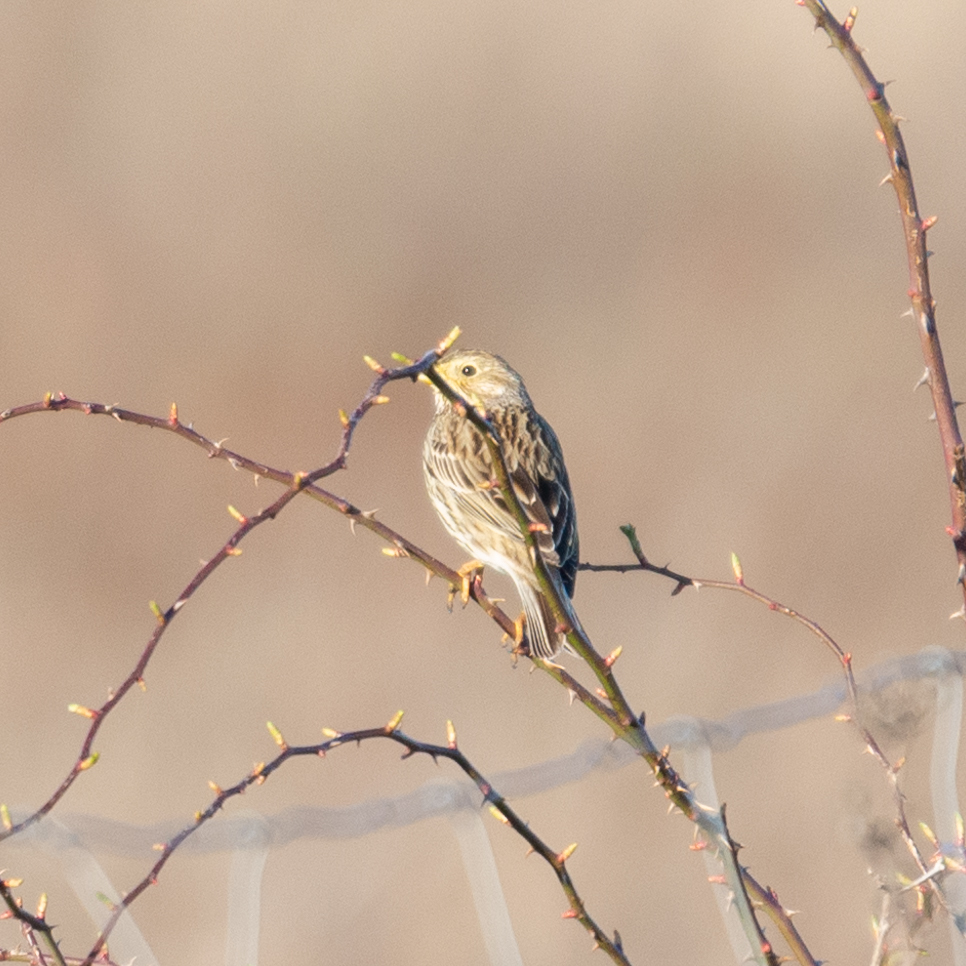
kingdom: Animalia
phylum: Chordata
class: Aves
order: Passeriformes
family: Emberizidae
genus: Emberiza
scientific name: Emberiza calandra
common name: Corn bunting
